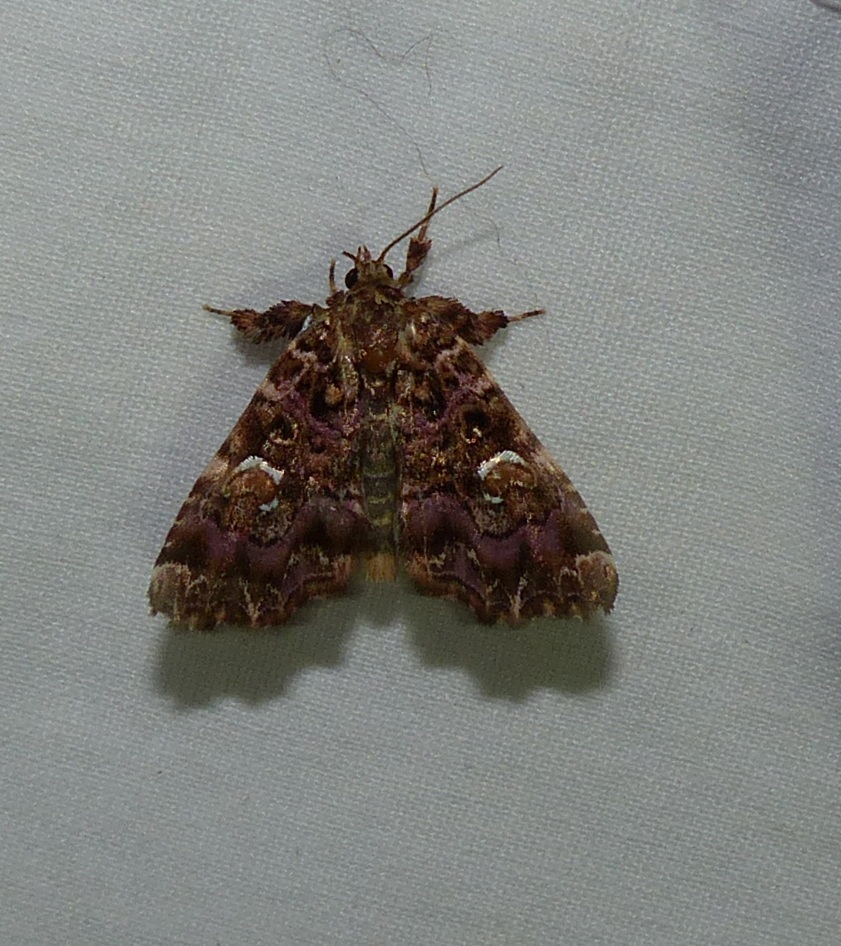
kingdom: Animalia
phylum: Arthropoda
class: Insecta
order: Lepidoptera
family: Noctuidae
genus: Callopistria
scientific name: Callopistria mollissima
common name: Pink-shaded fern moth
